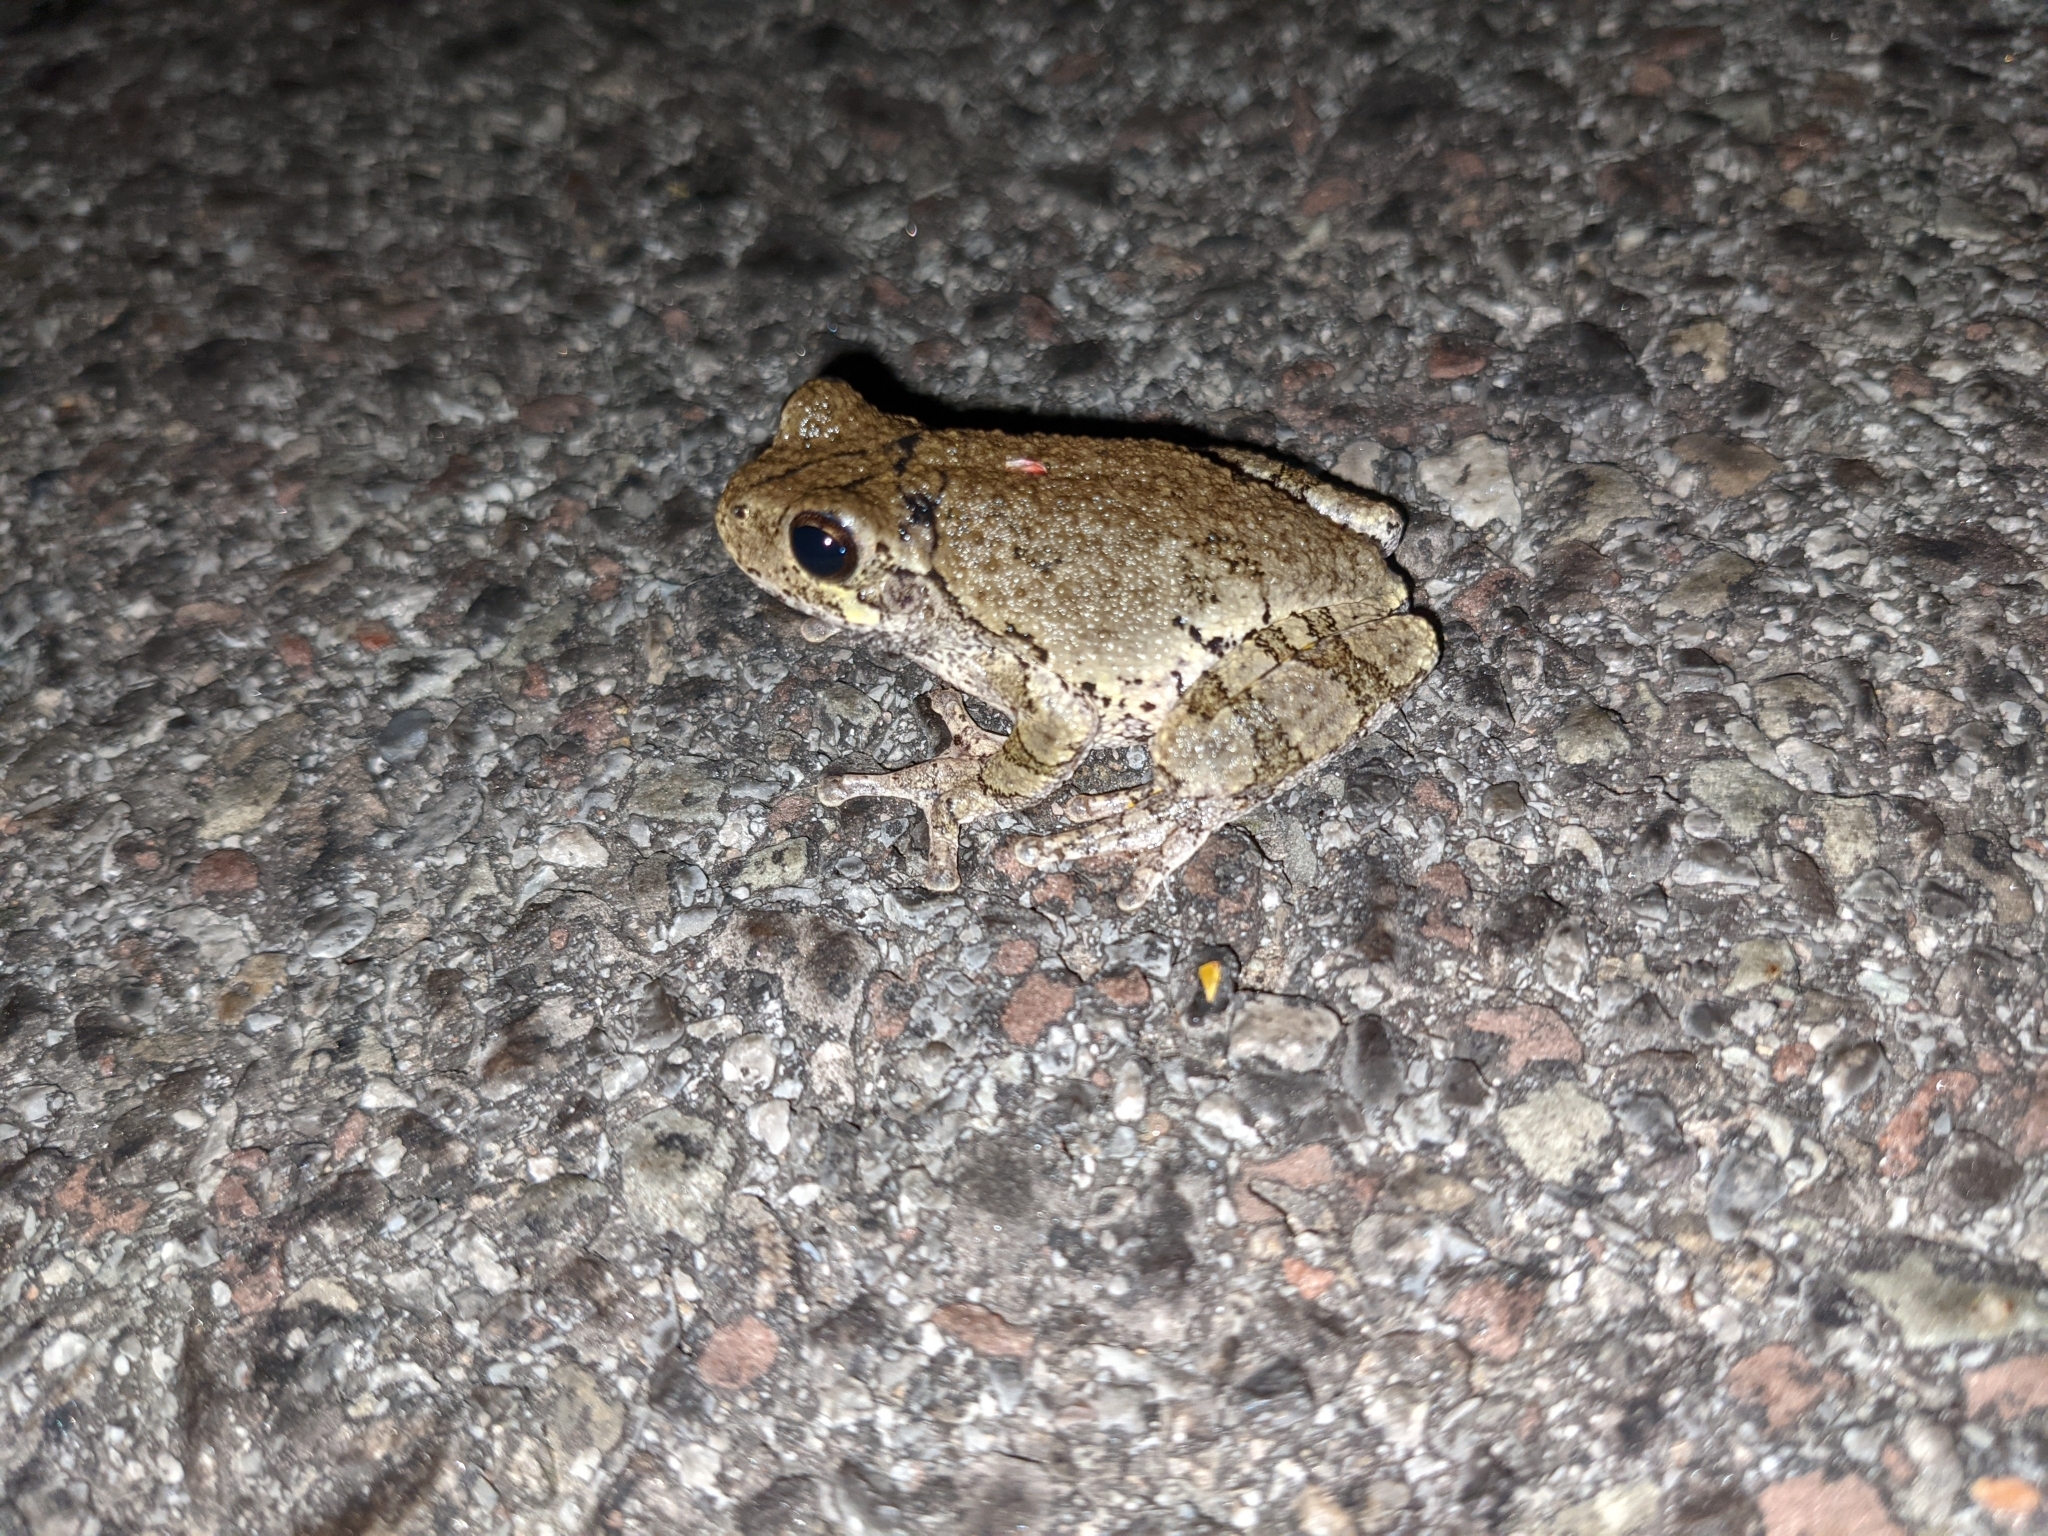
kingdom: Animalia
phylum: Chordata
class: Amphibia
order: Anura
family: Hylidae
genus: Dryophytes
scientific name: Dryophytes versicolor
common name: Gray treefrog
